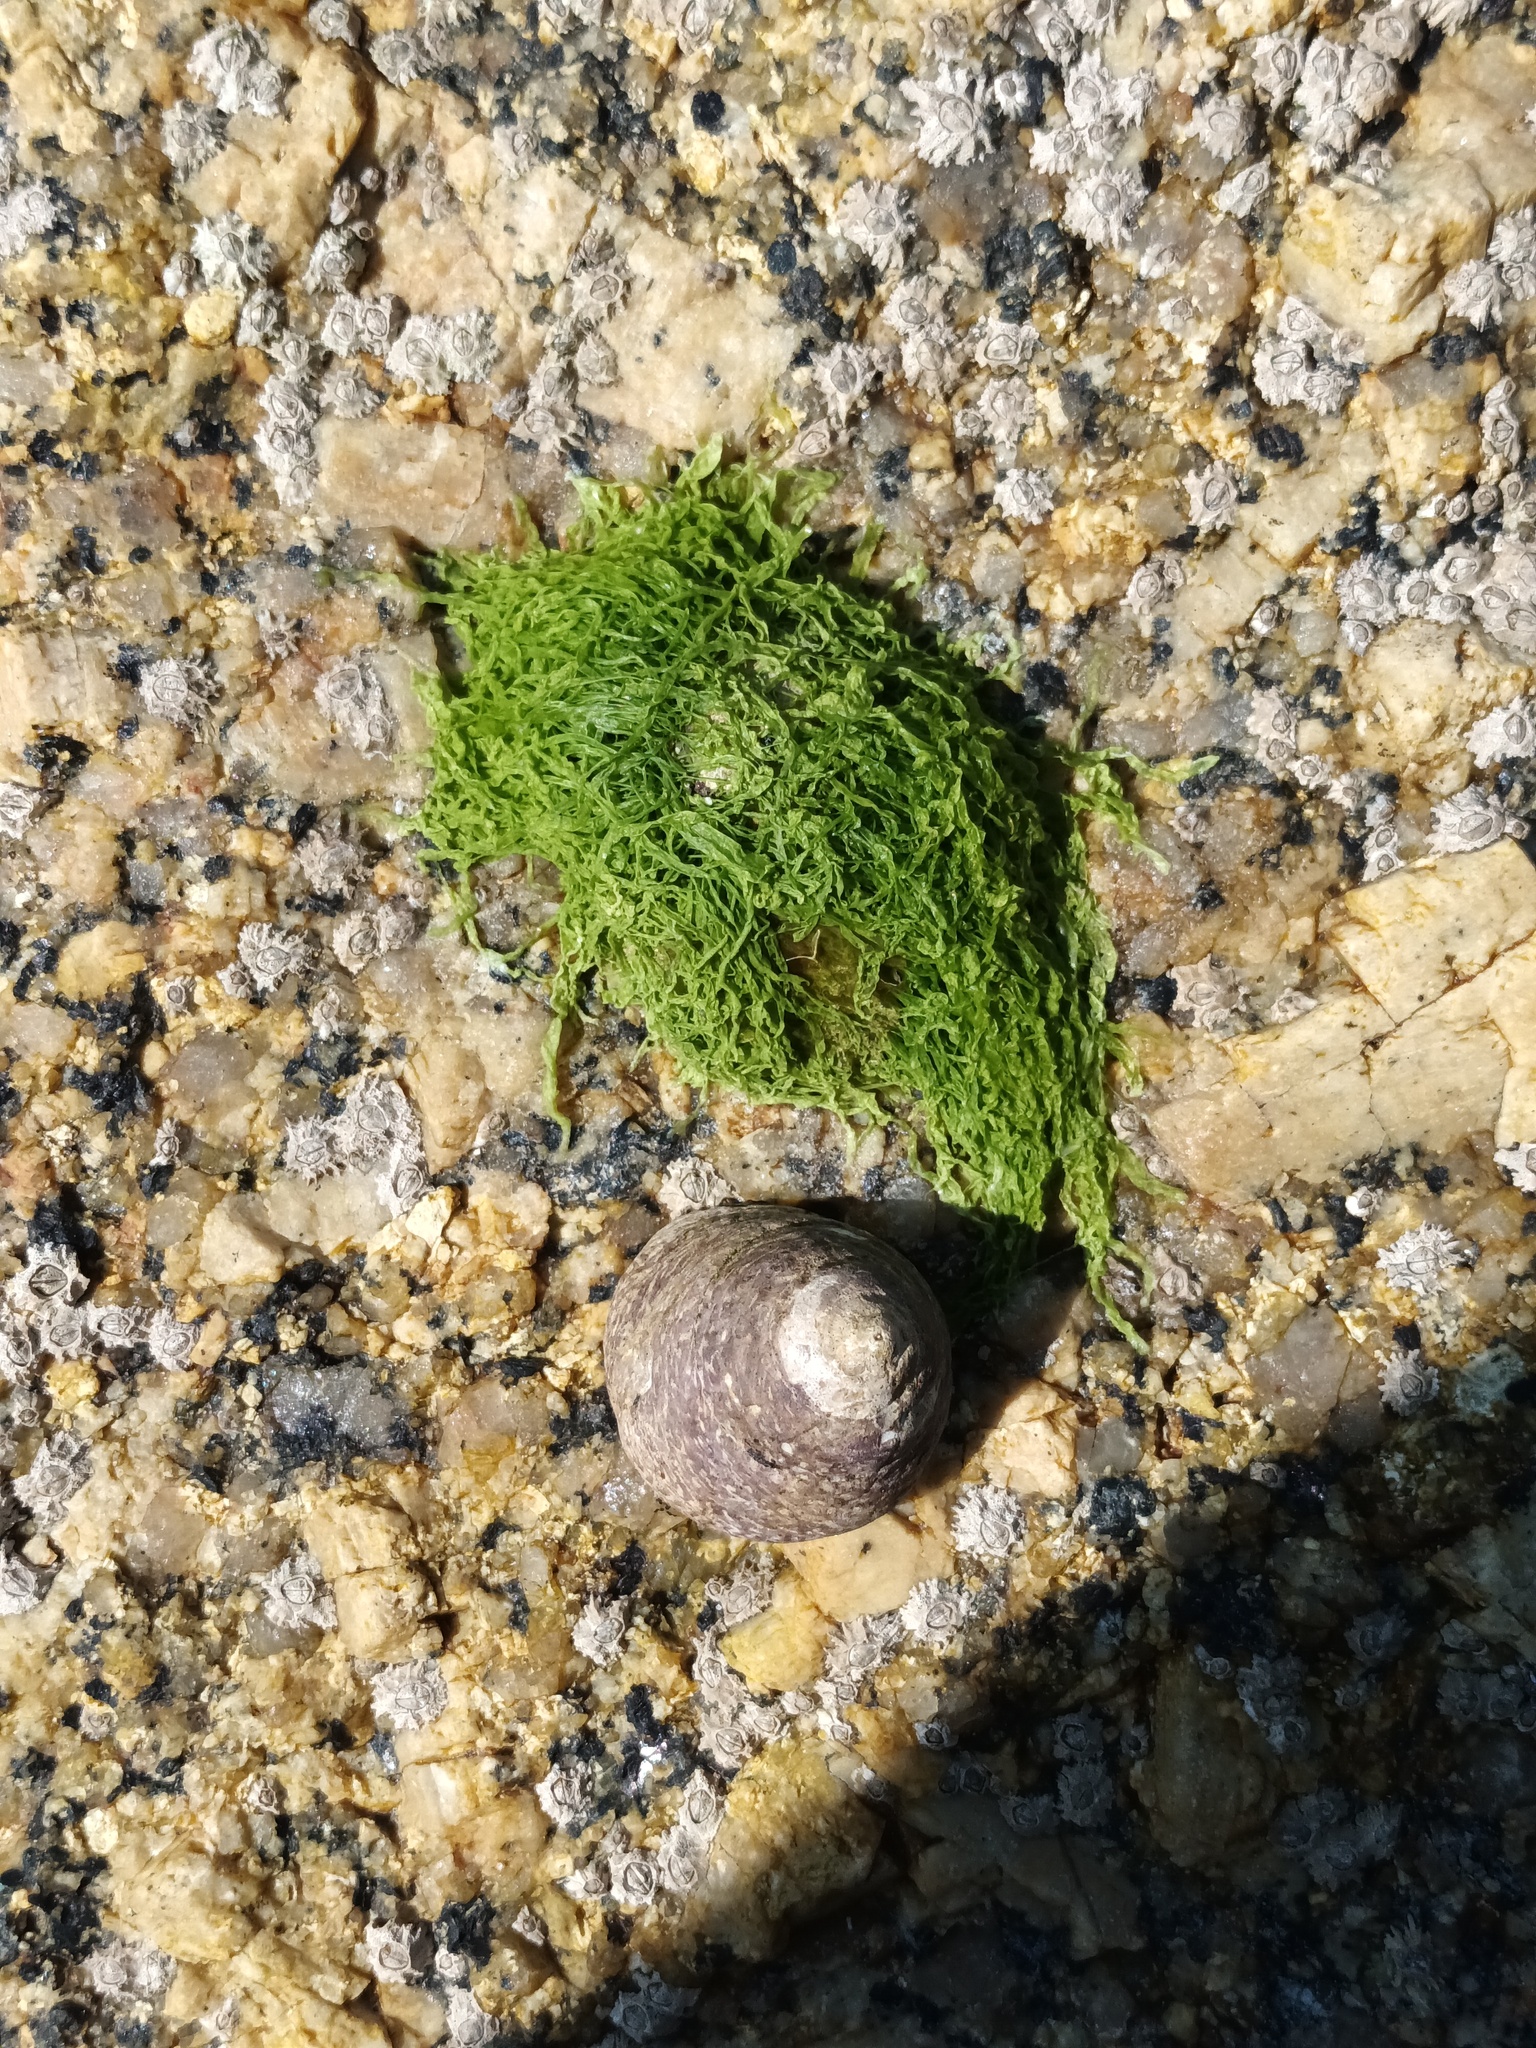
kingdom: Animalia
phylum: Mollusca
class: Gastropoda
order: Trochida
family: Trochidae
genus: Phorcus
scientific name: Phorcus lineatus
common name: Toothed top shell
